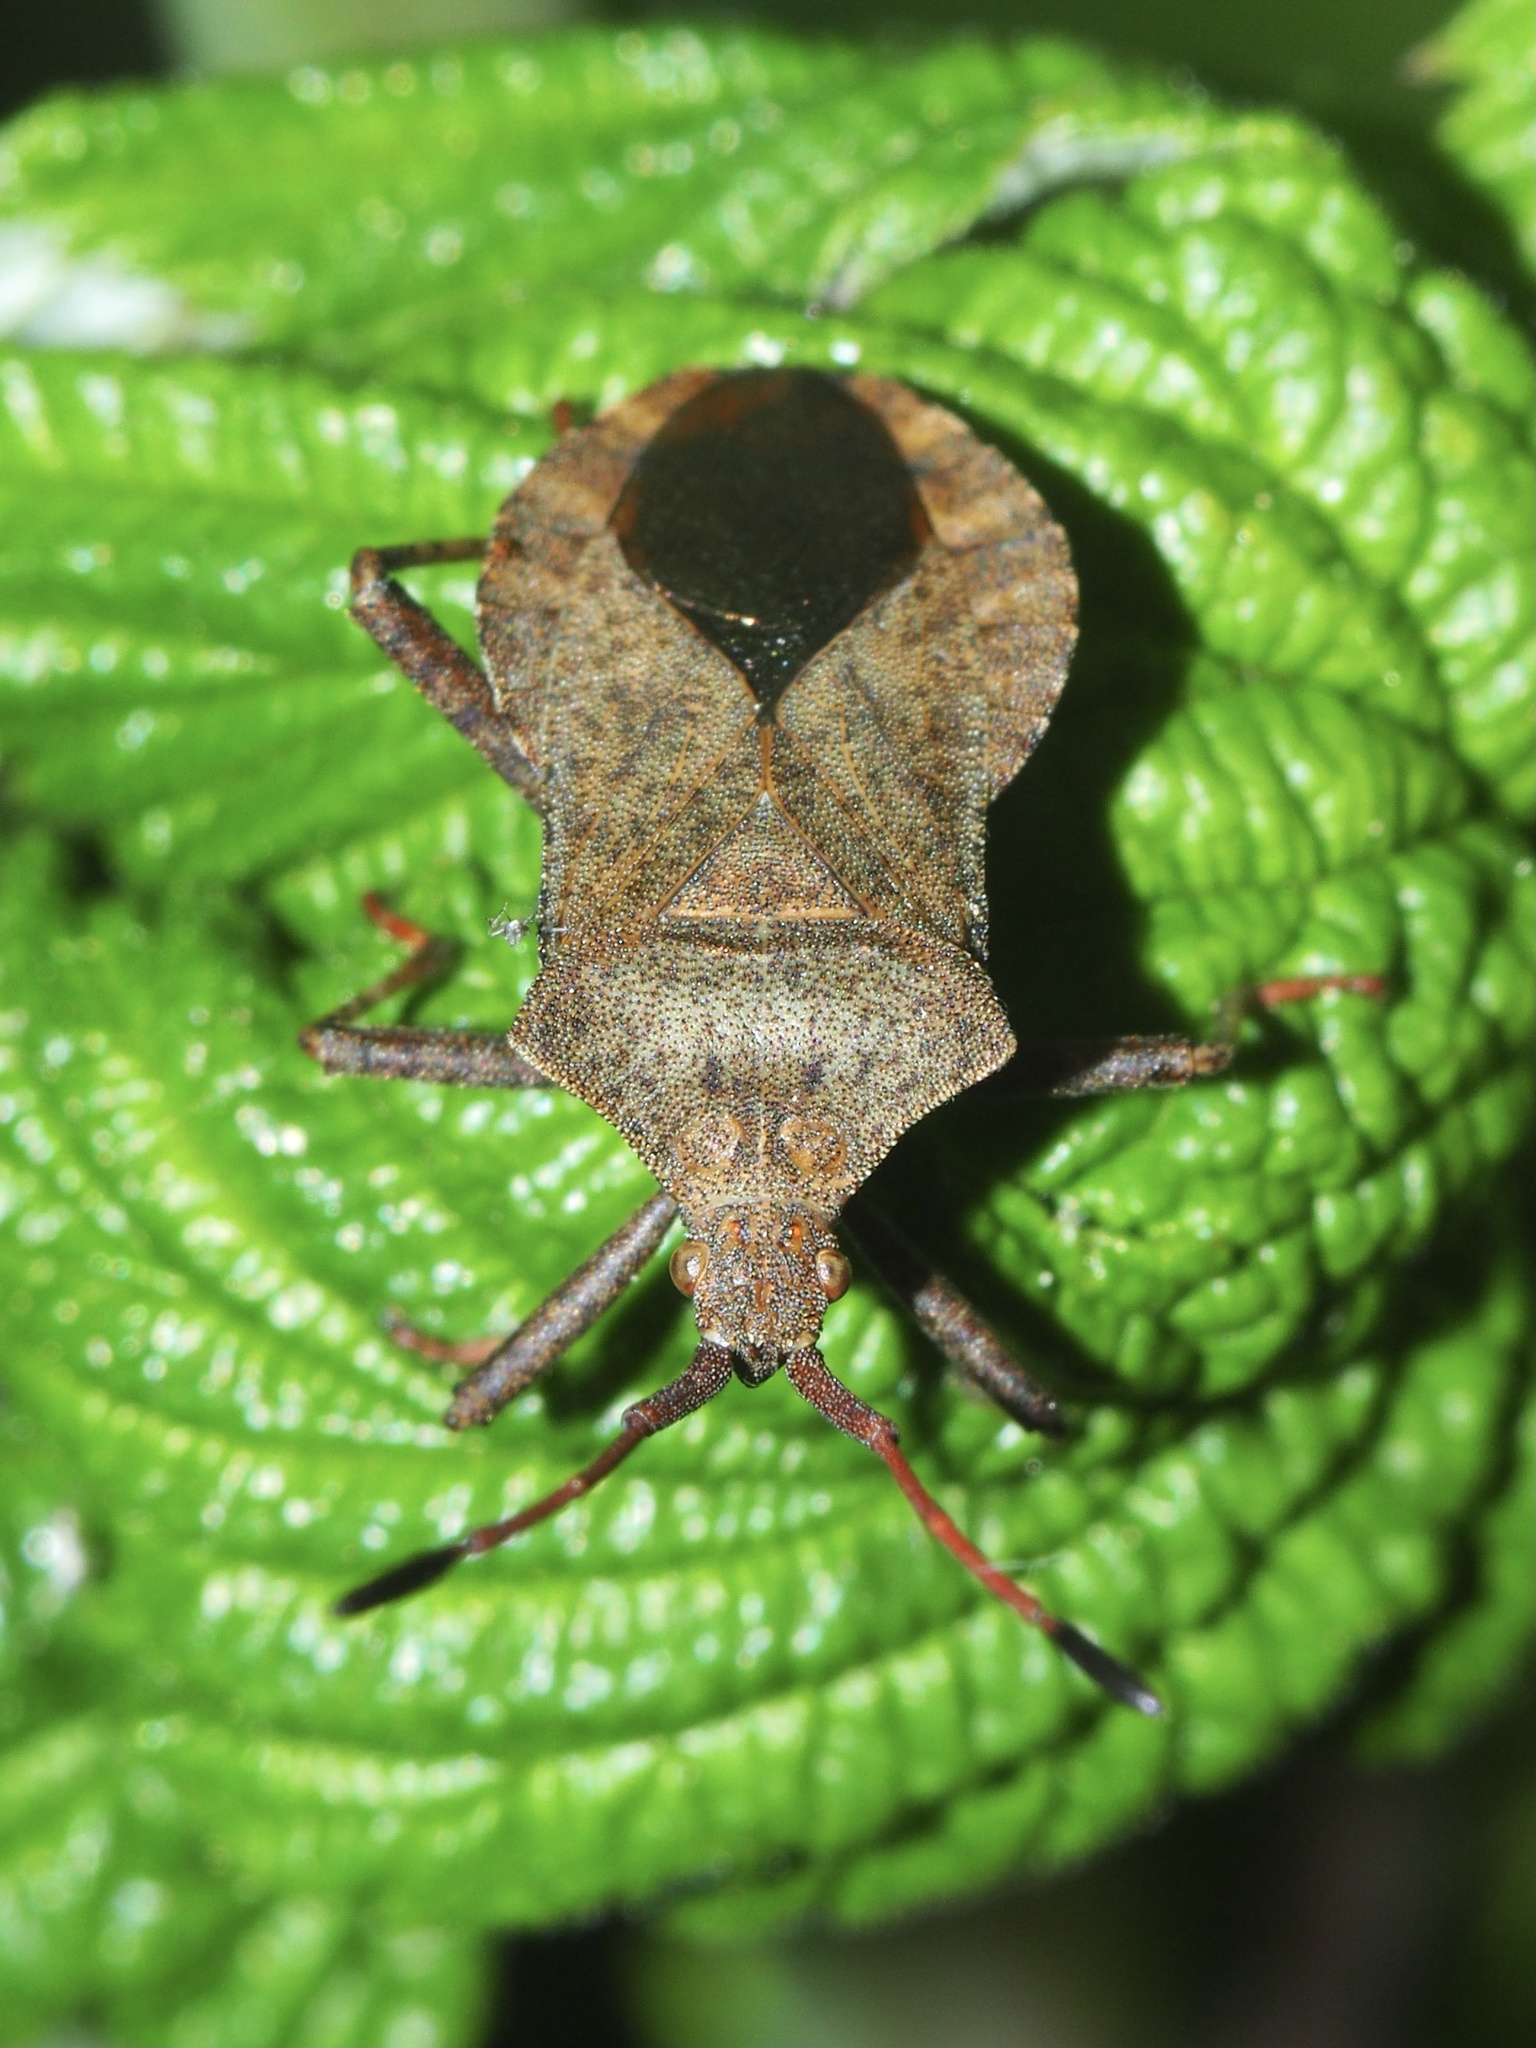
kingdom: Animalia
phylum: Arthropoda
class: Insecta
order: Hemiptera
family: Coreidae
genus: Coreus
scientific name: Coreus marginatus
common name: Dock bug
